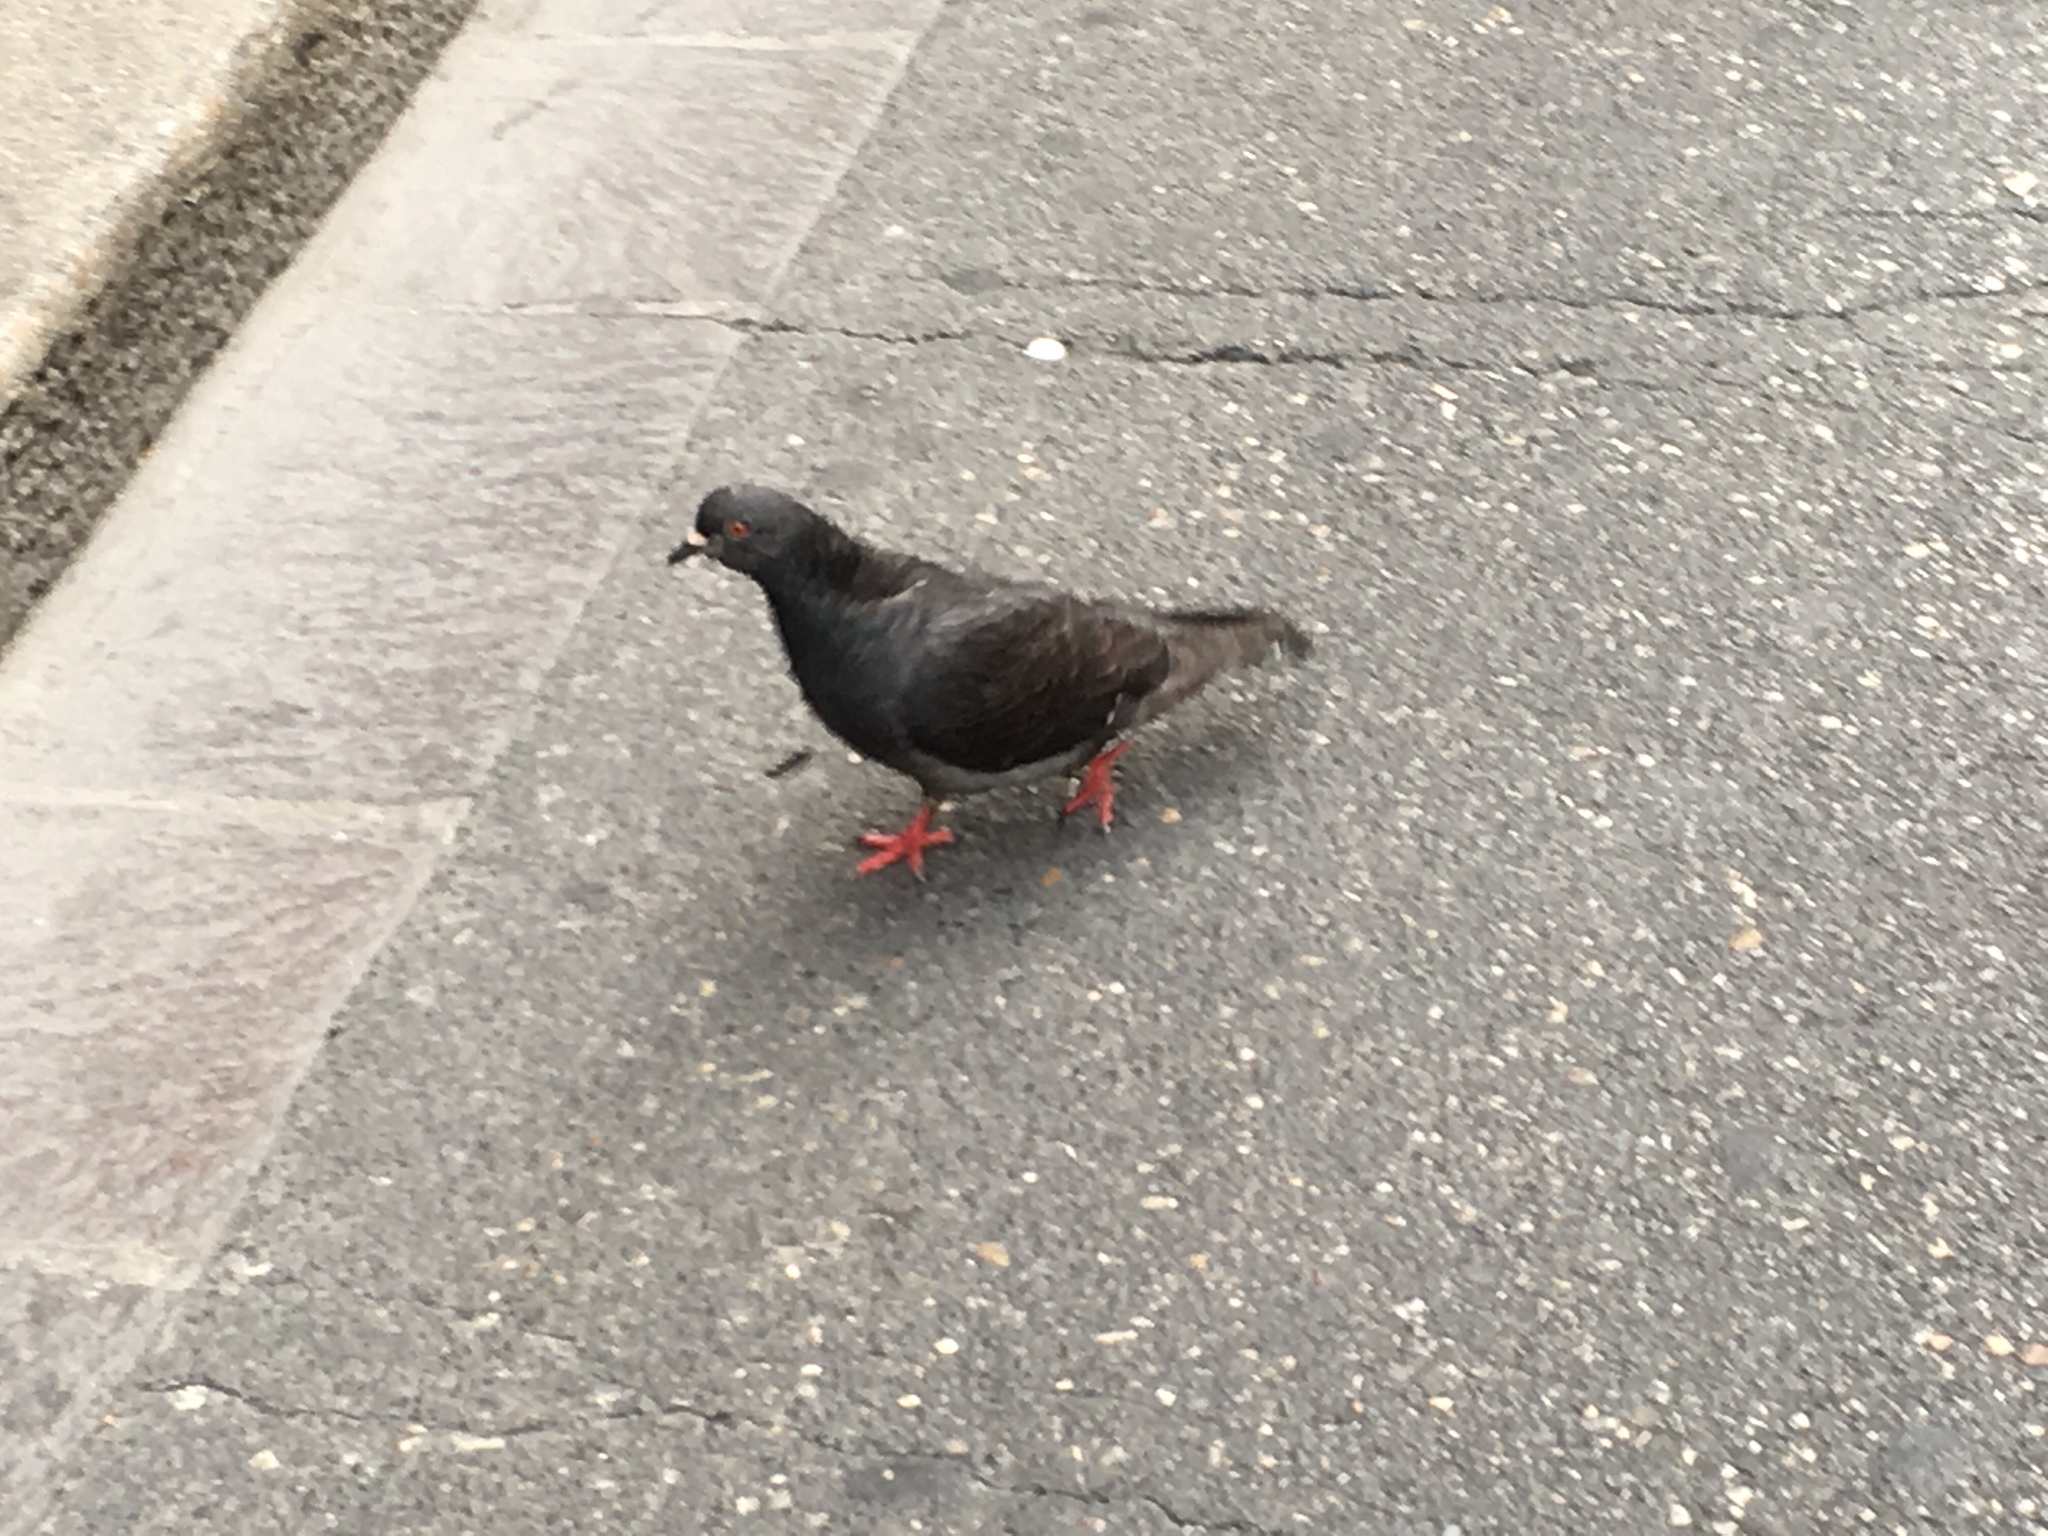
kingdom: Animalia
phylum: Chordata
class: Aves
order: Columbiformes
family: Columbidae
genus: Columba
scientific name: Columba livia
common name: Rock pigeon
